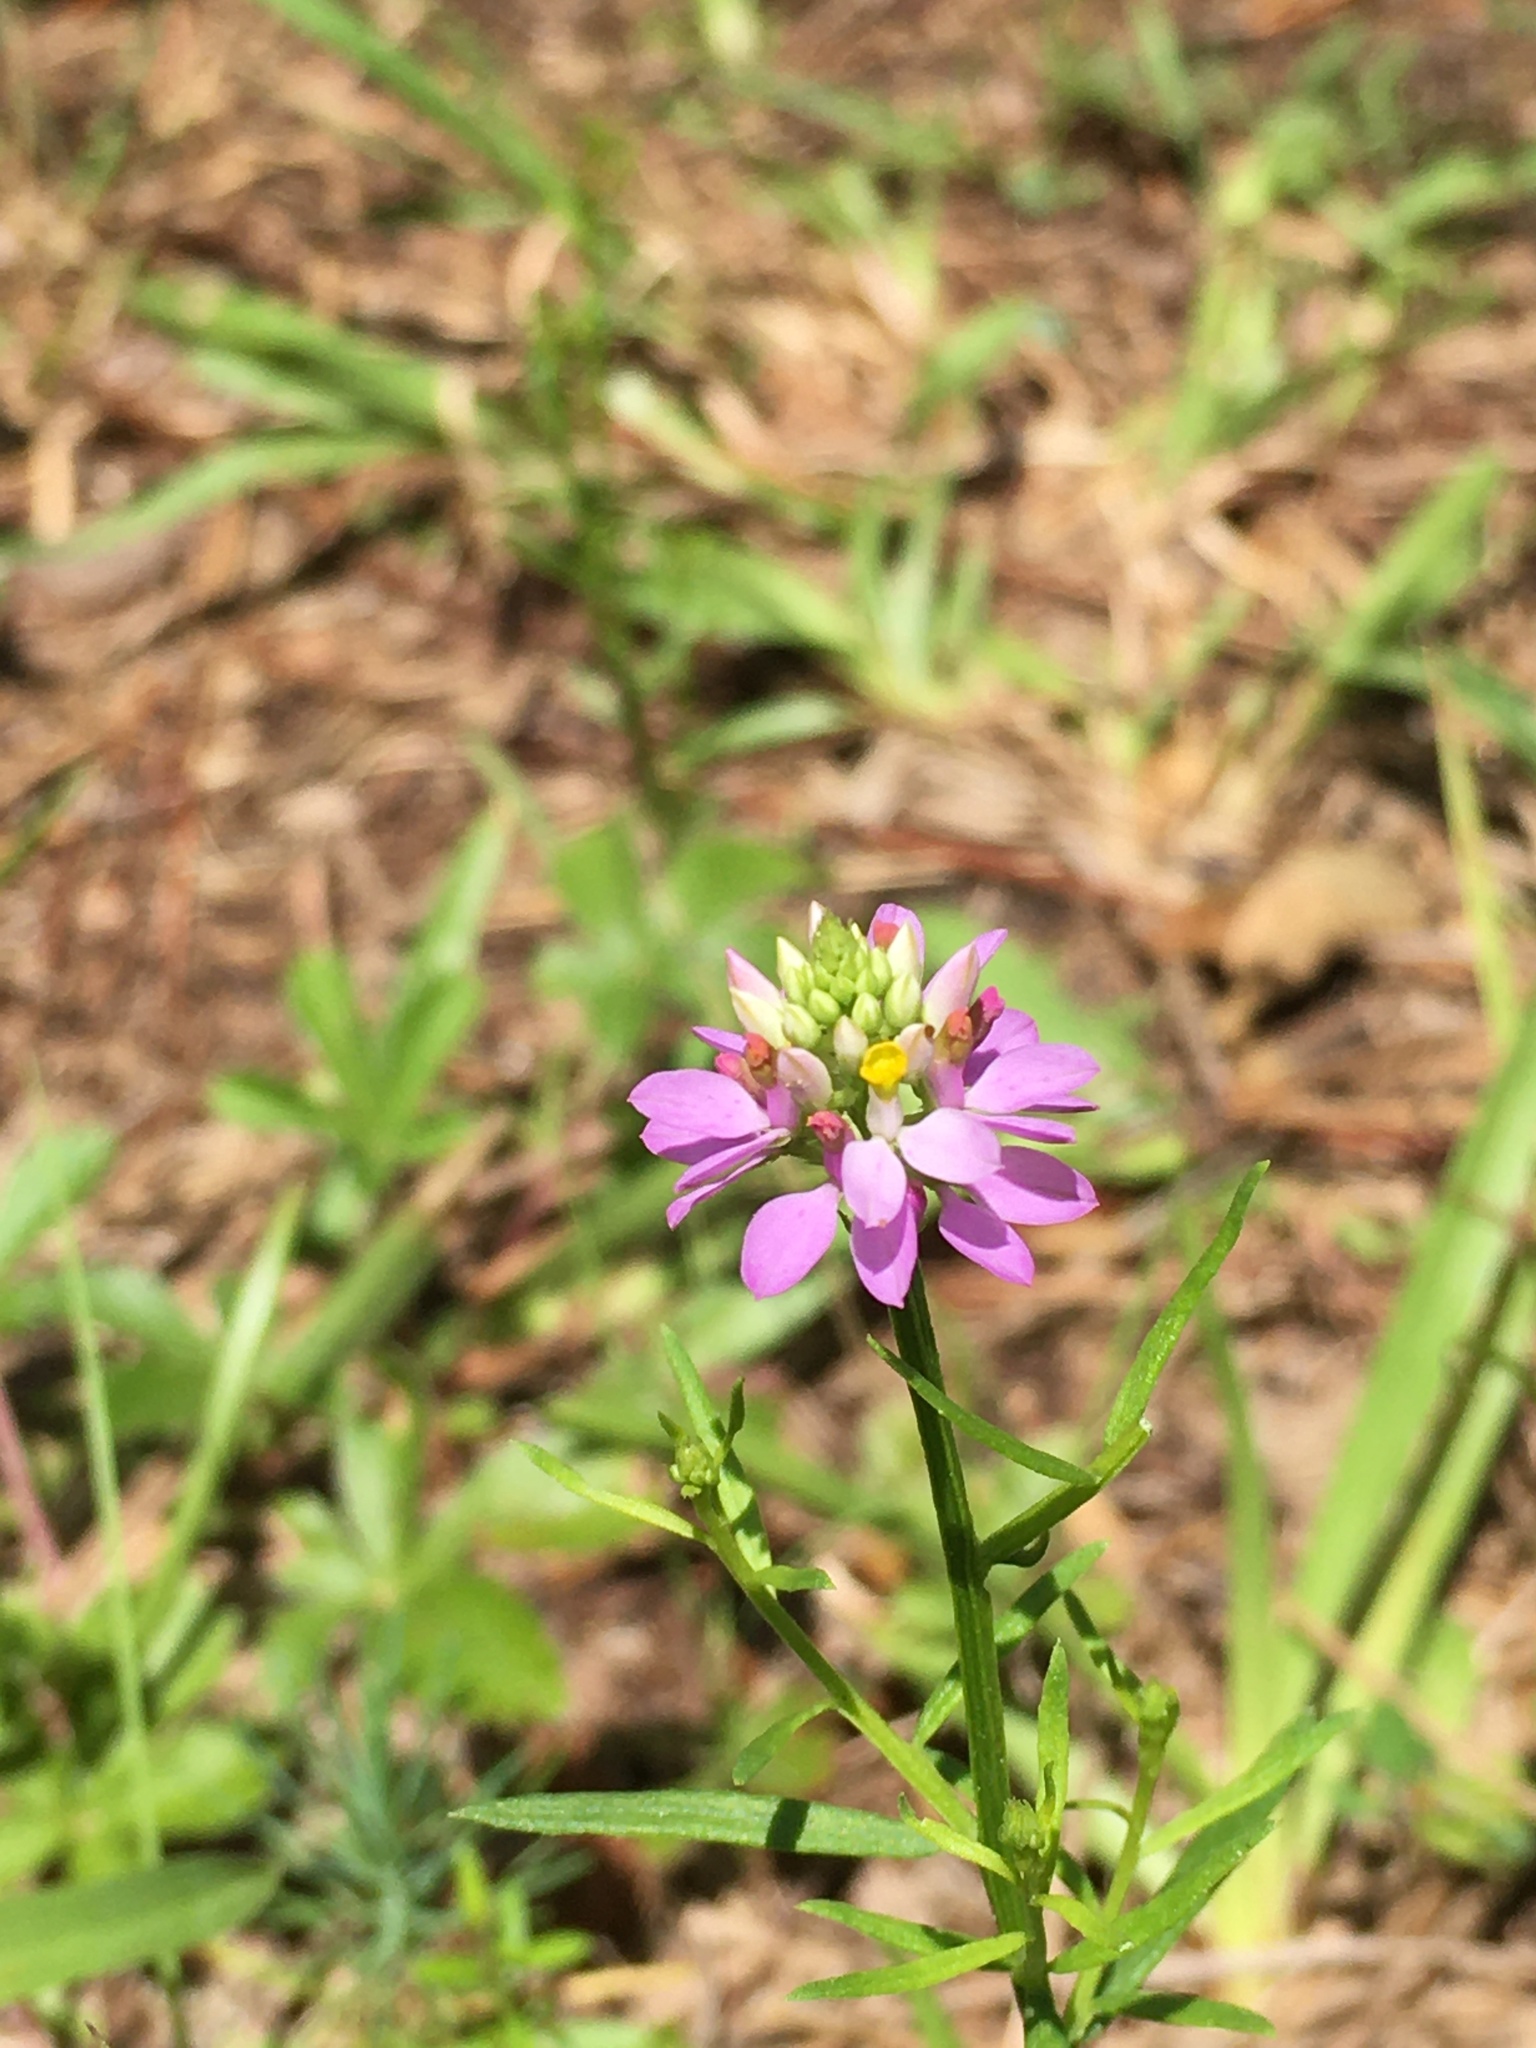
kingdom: Plantae
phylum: Tracheophyta
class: Magnoliopsida
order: Fabales
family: Polygalaceae
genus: Polygala
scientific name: Polygala curtissii
